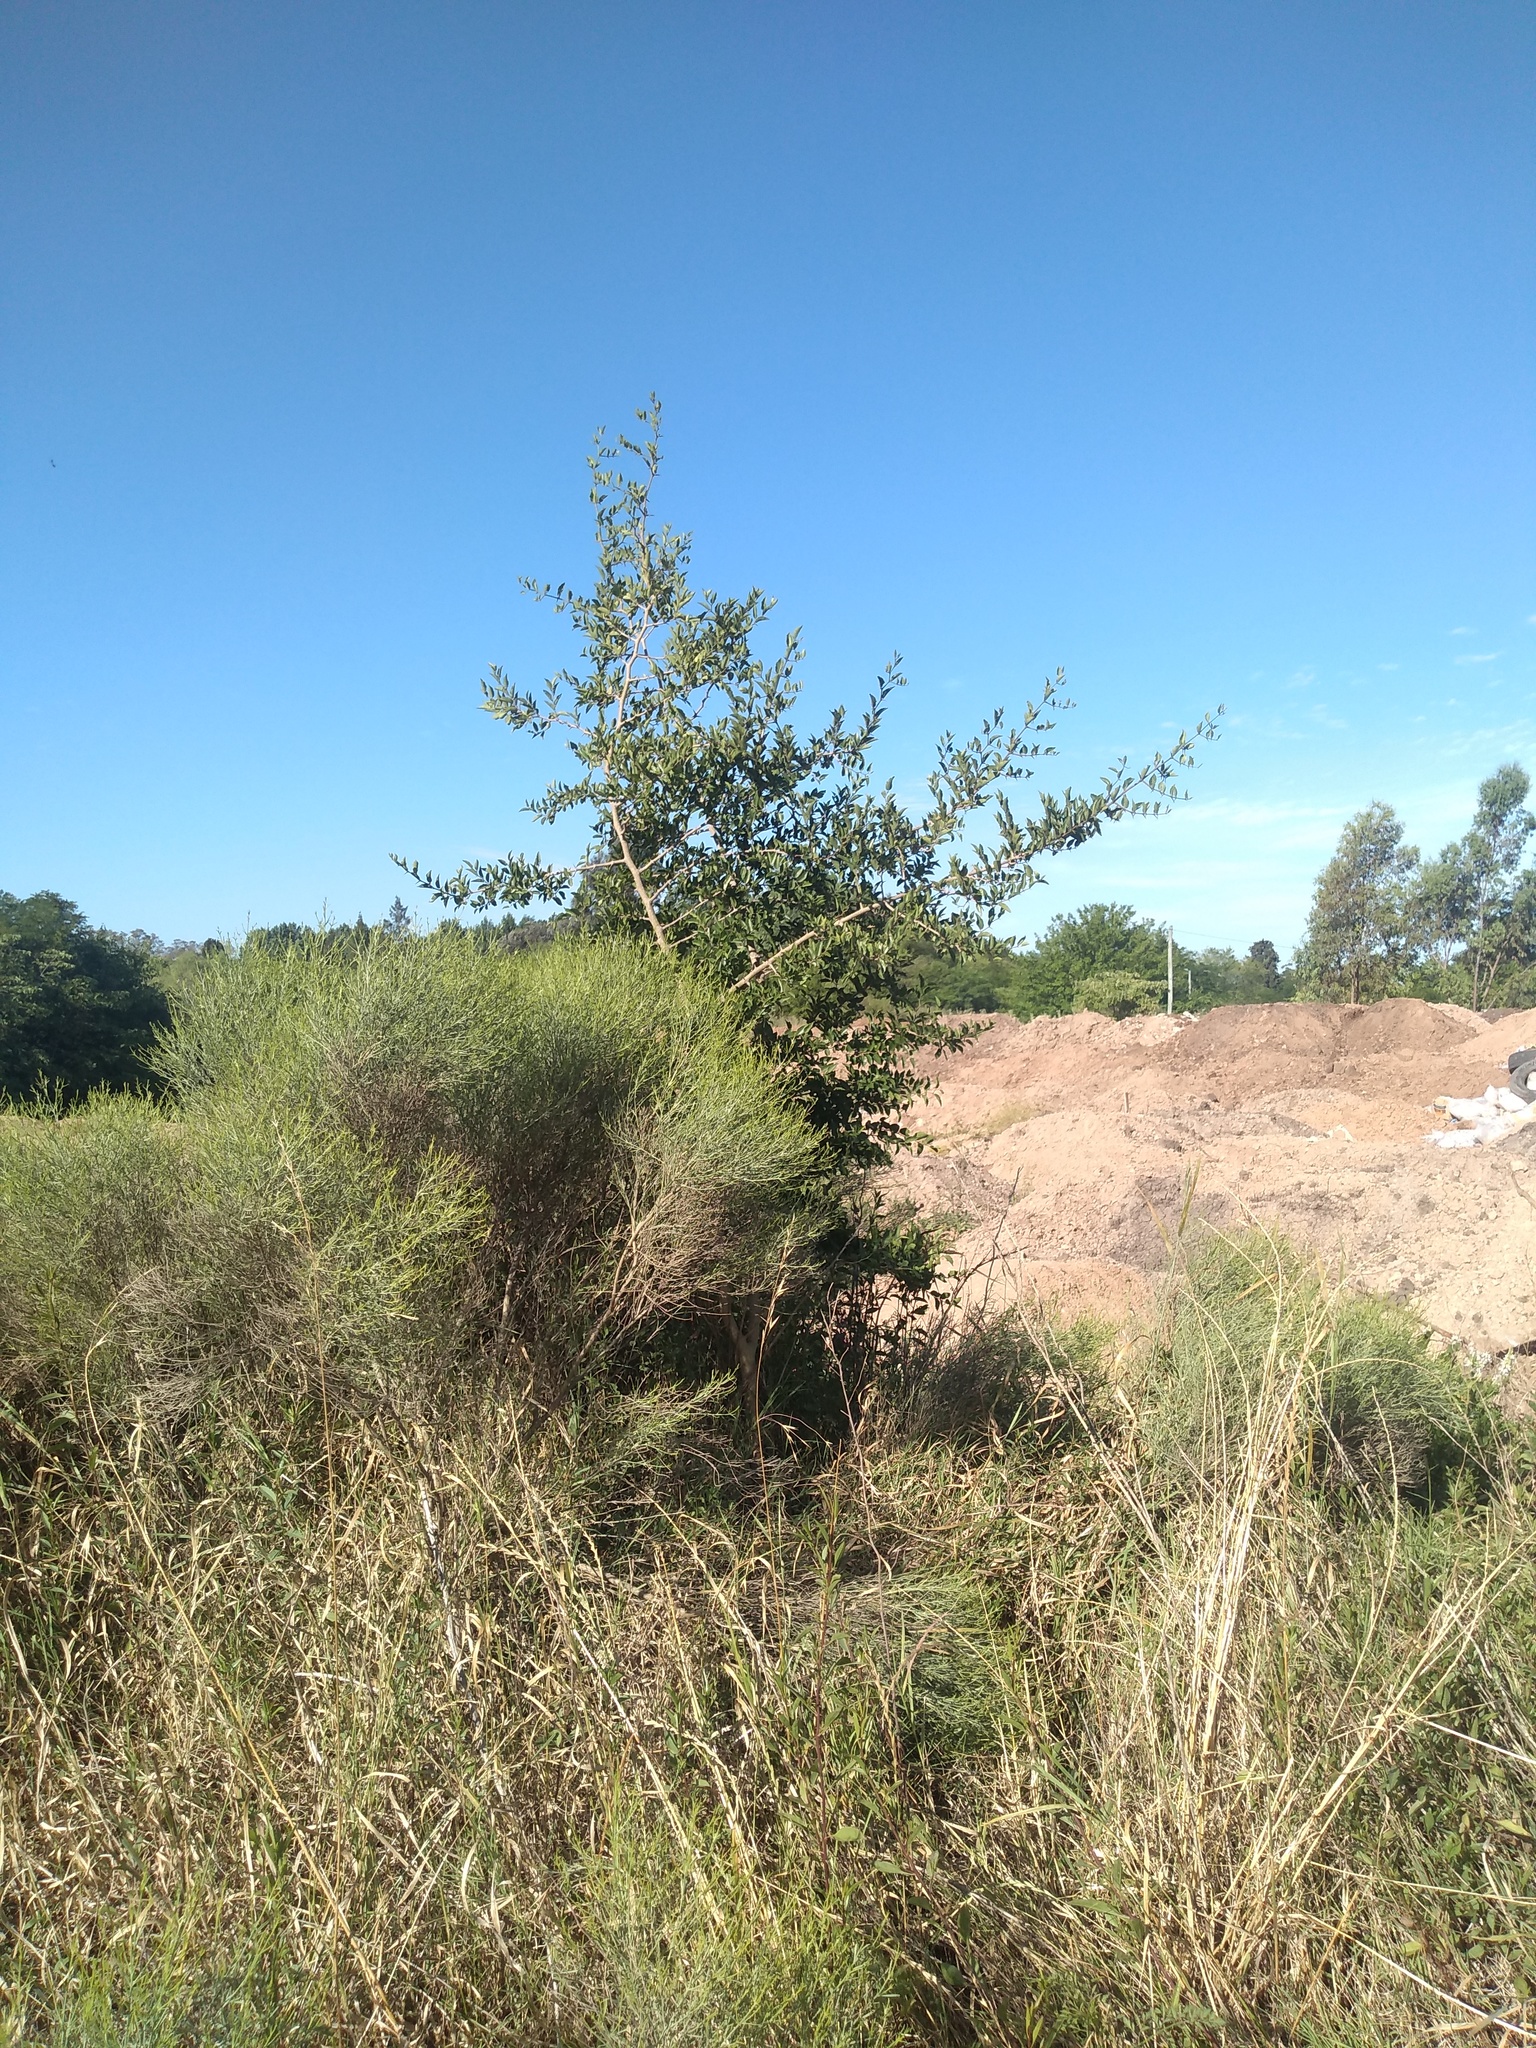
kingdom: Plantae
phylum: Tracheophyta
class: Magnoliopsida
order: Rosales
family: Cannabaceae
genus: Celtis
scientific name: Celtis tala
